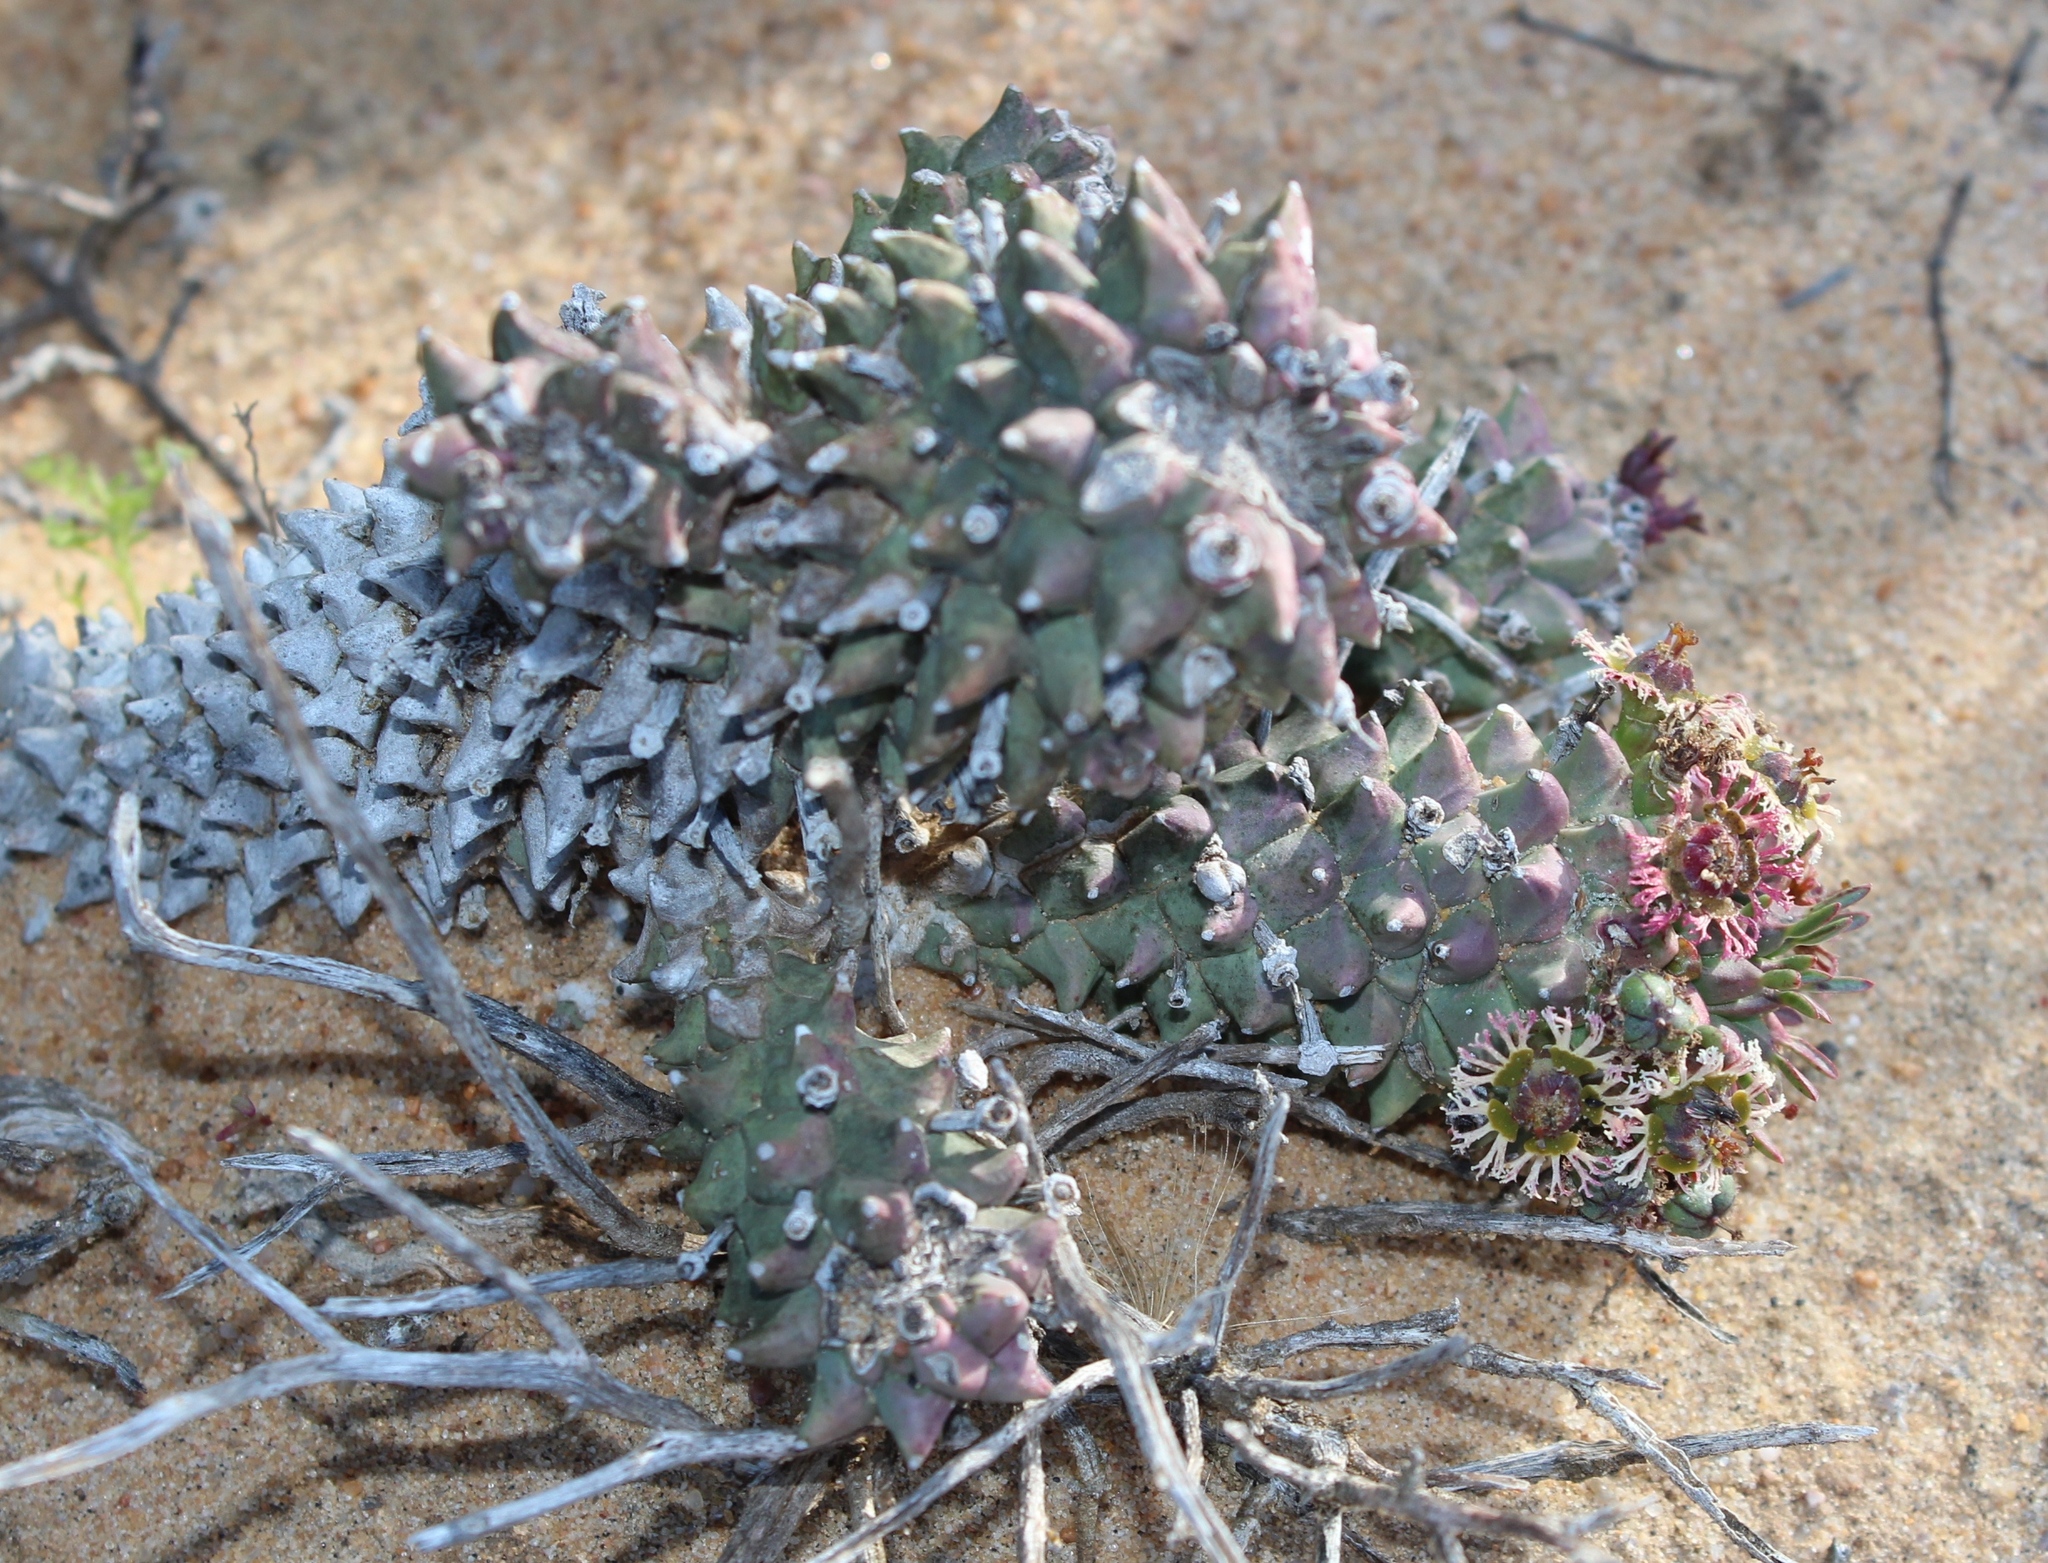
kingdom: Plantae
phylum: Tracheophyta
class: Magnoliopsida
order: Malpighiales
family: Euphorbiaceae
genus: Euphorbia
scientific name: Euphorbia caput-medusae
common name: Medusa's-head
